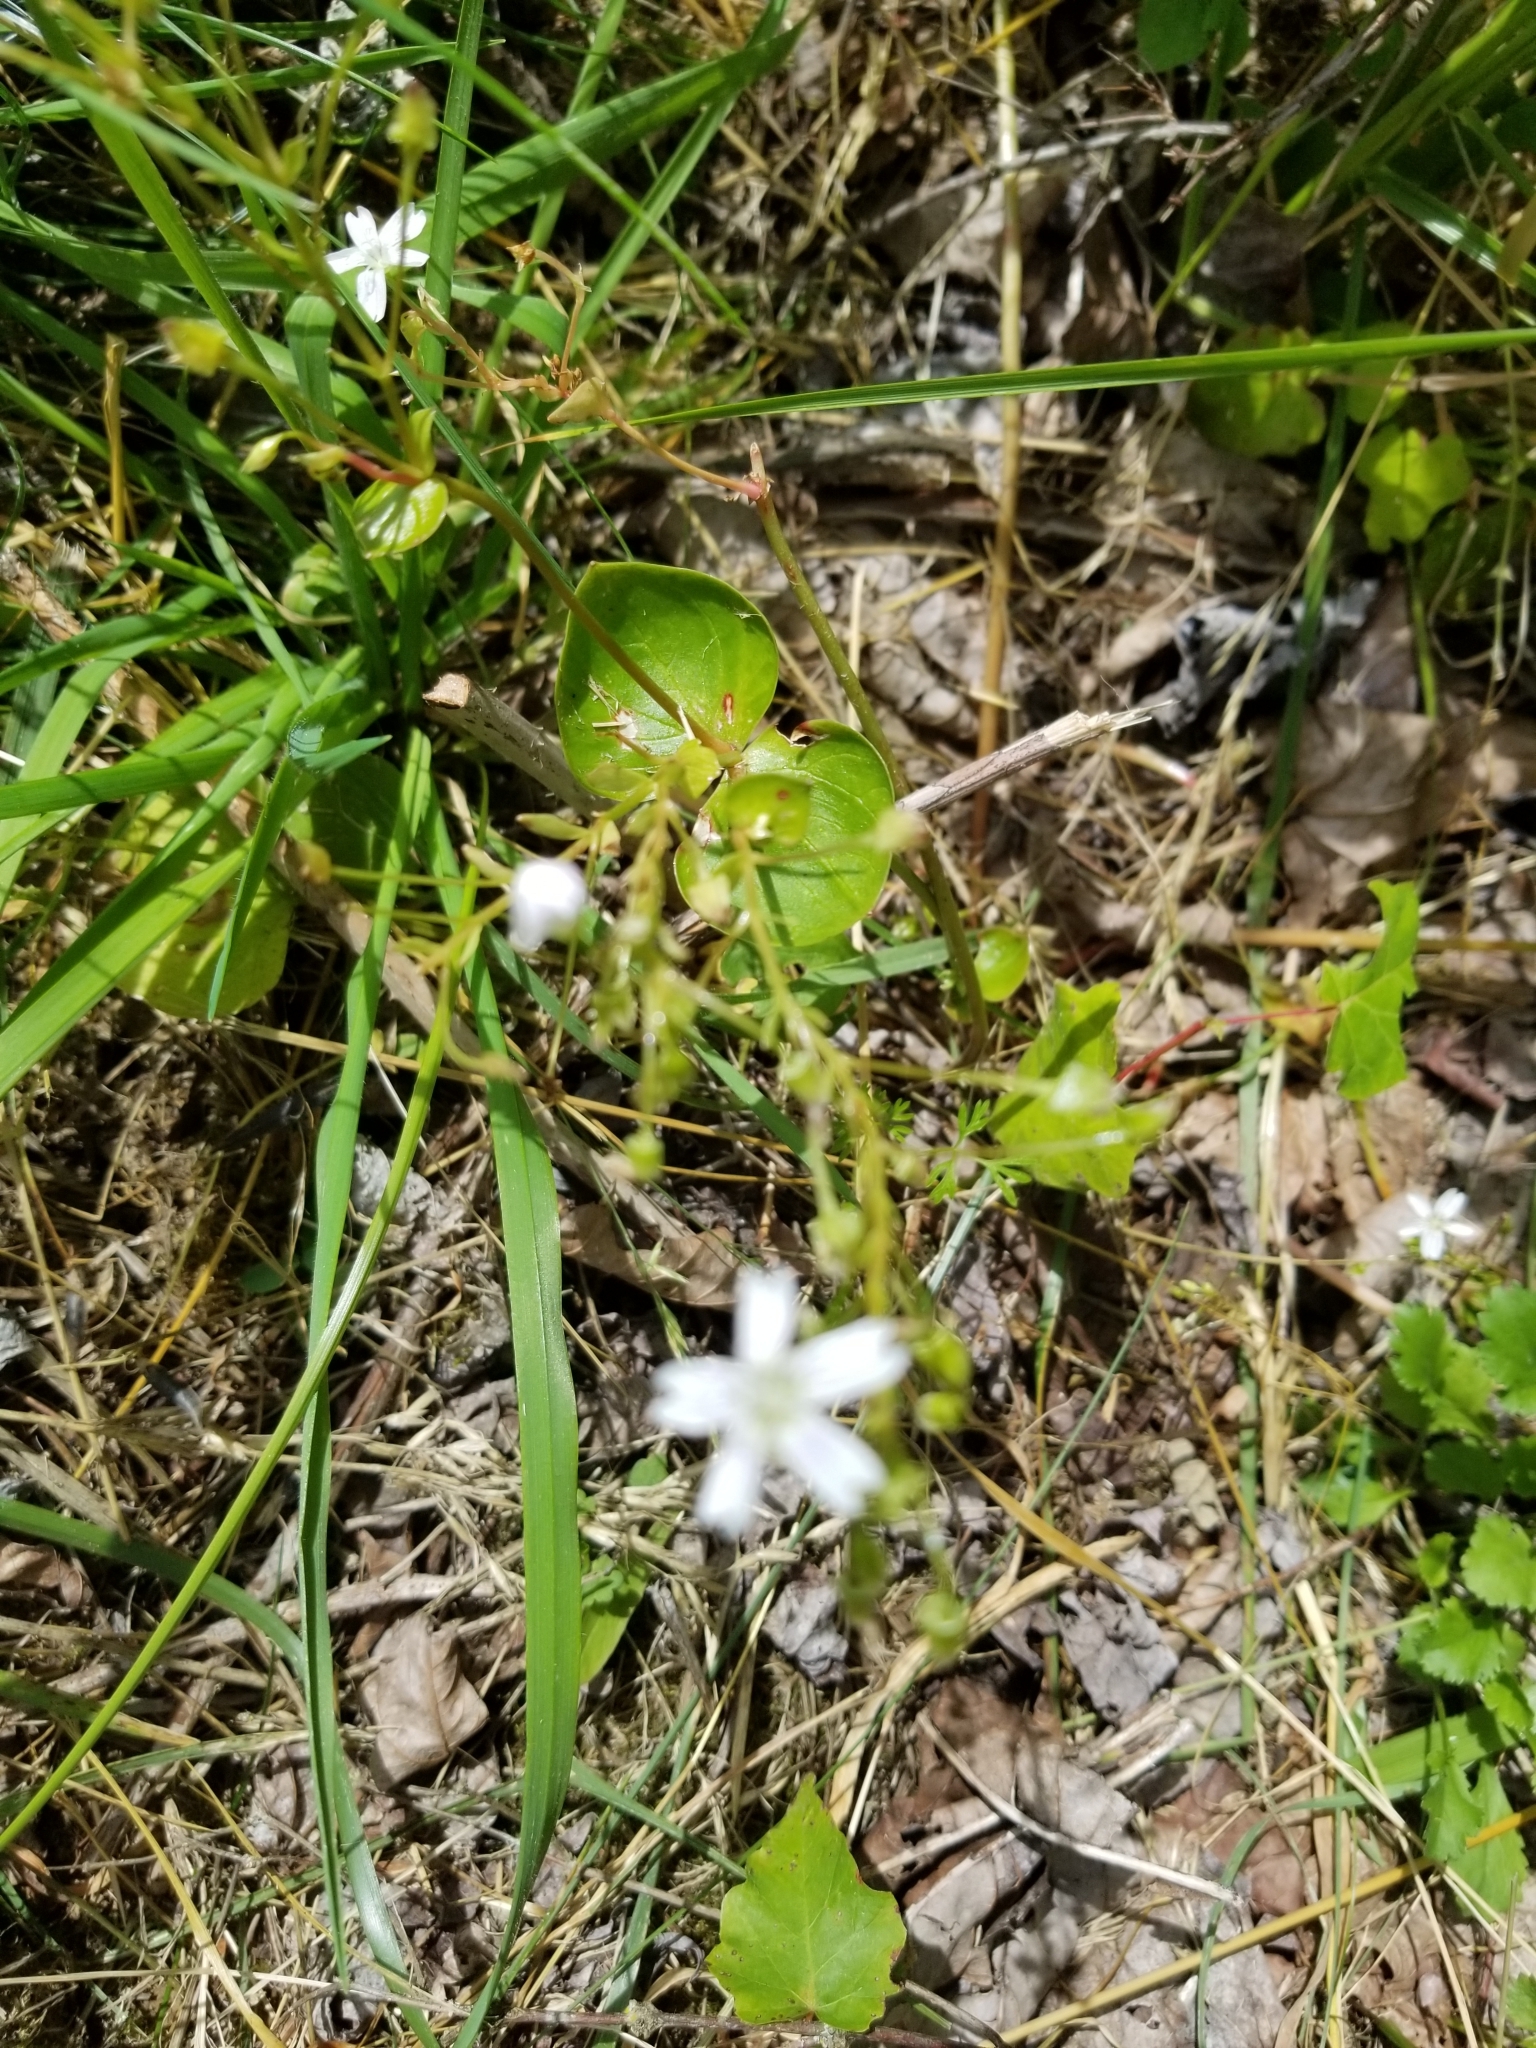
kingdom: Plantae
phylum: Tracheophyta
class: Magnoliopsida
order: Caryophyllales
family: Montiaceae
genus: Claytonia
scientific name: Claytonia sibirica
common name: Pink purslane
